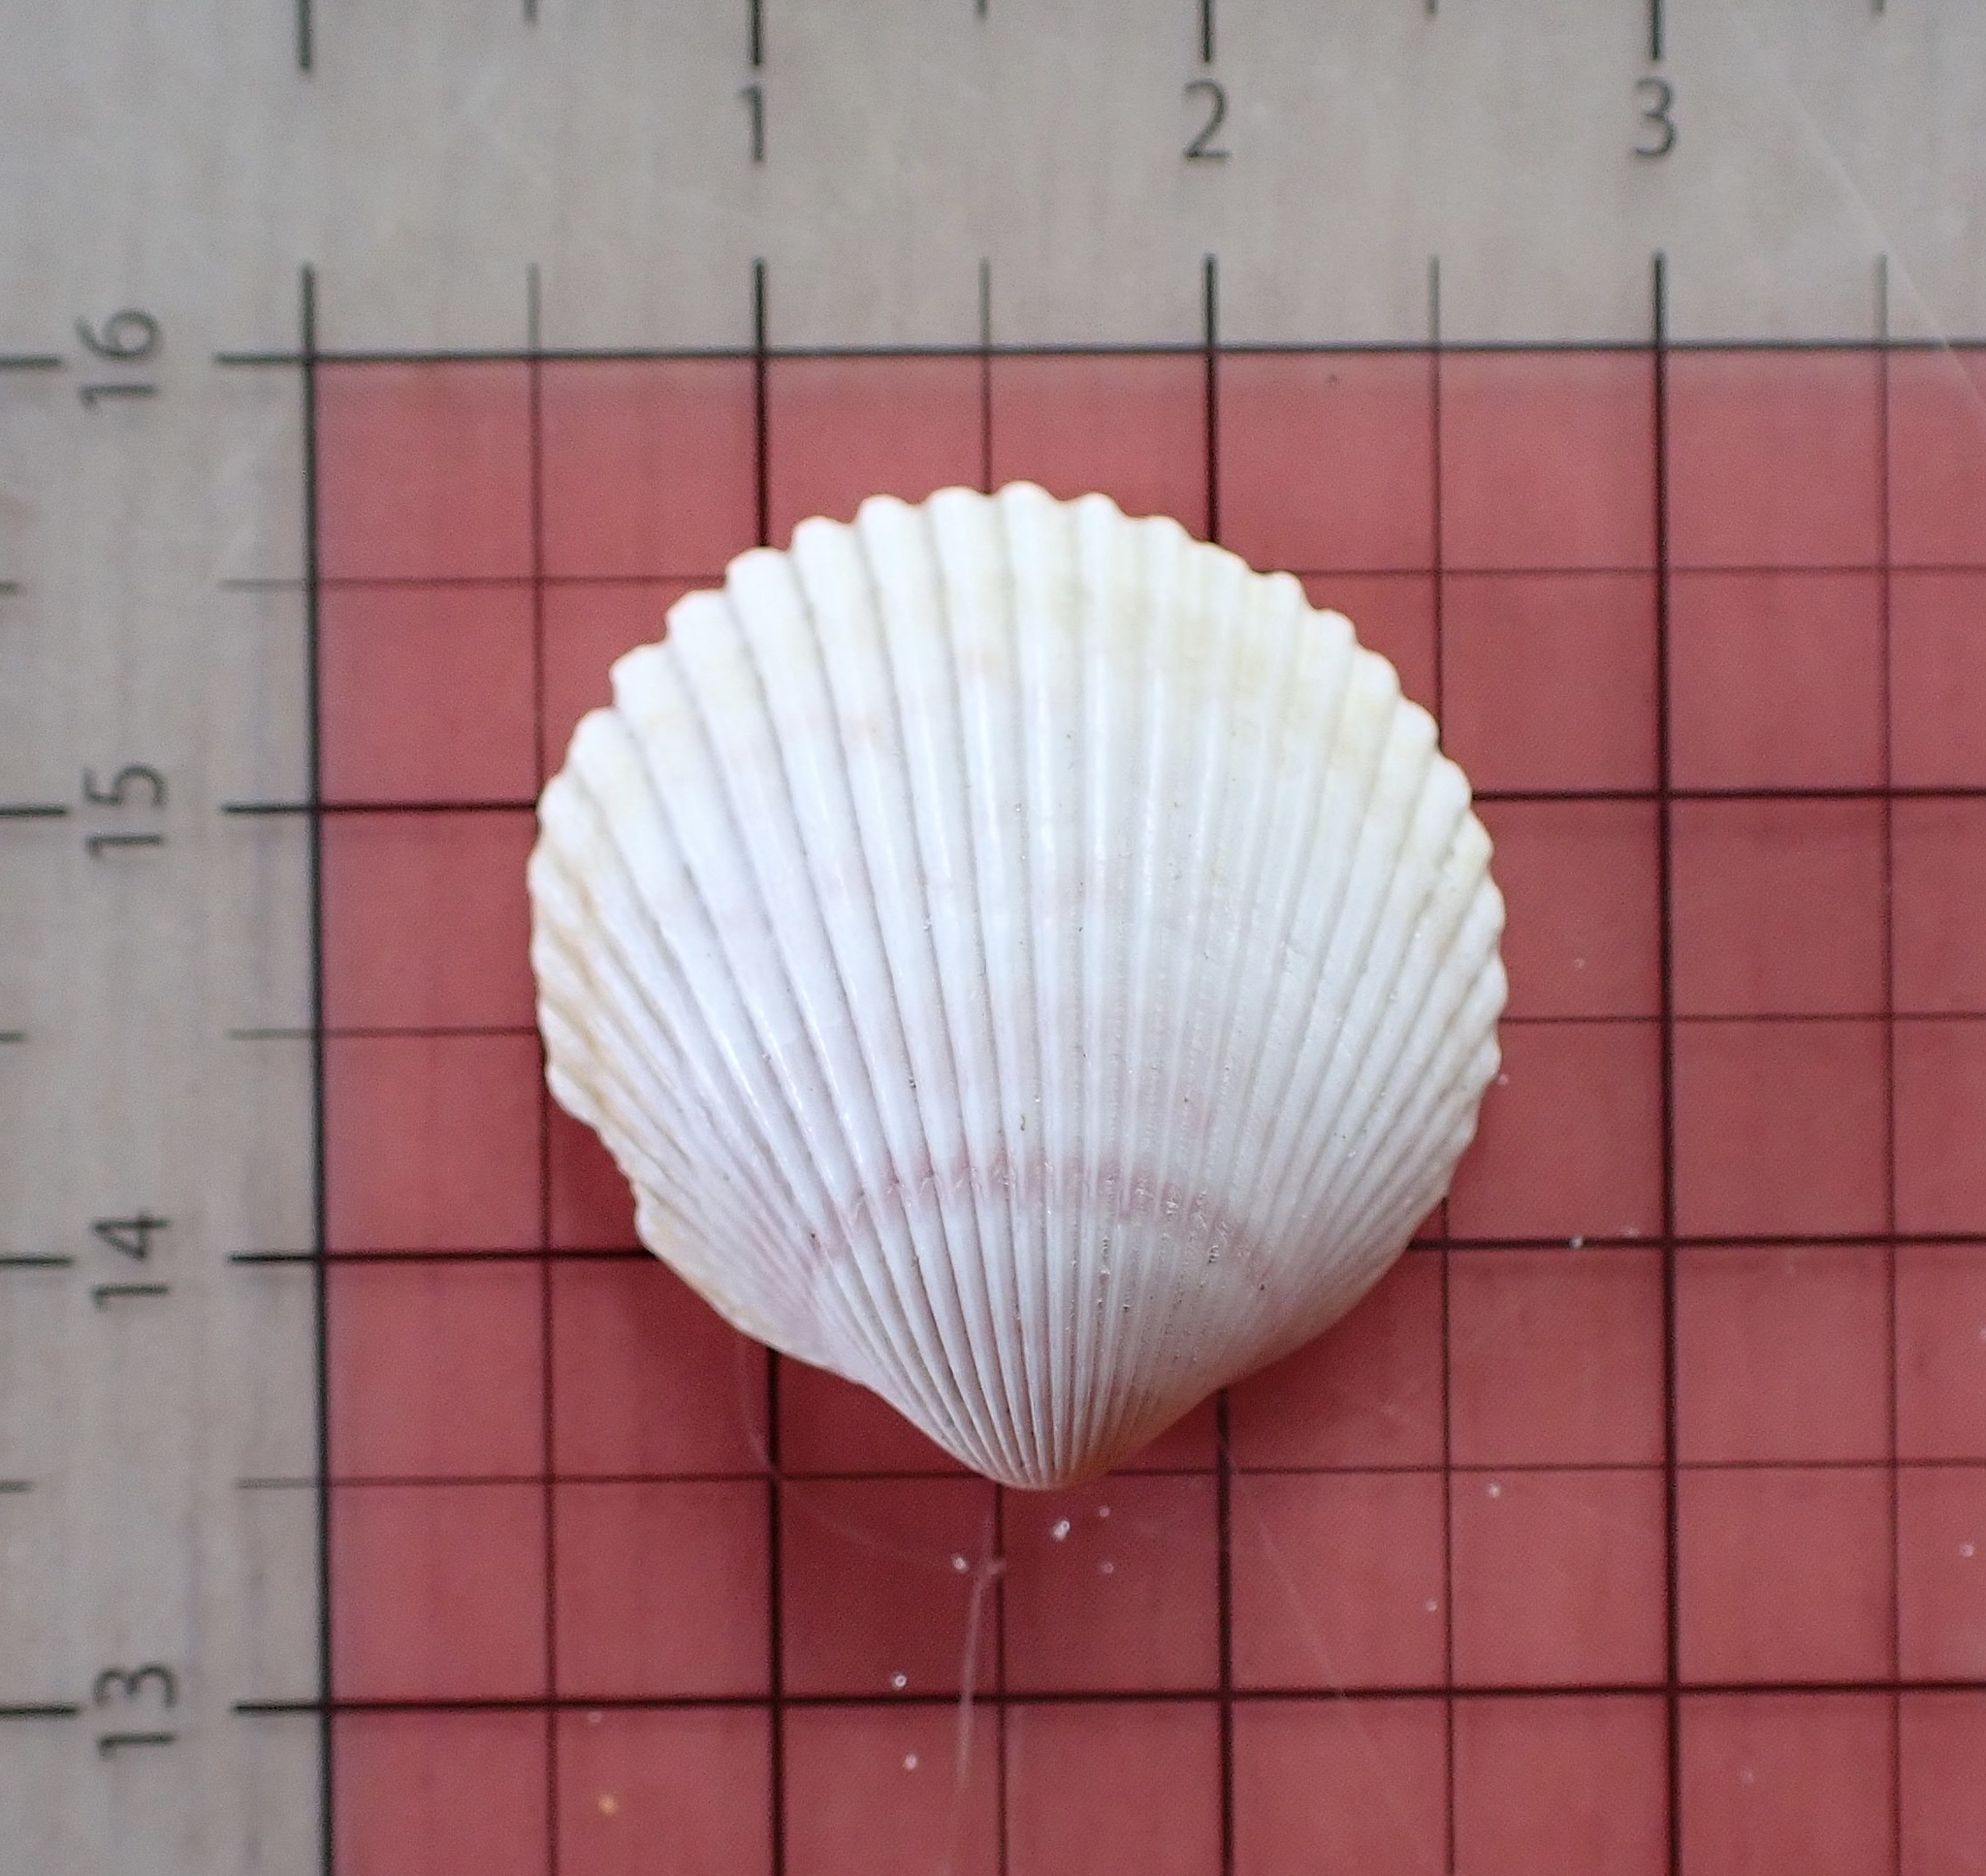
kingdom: Animalia
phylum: Mollusca
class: Bivalvia
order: Cardiida
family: Cardiidae
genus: Dallocardia
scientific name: Dallocardia muricata
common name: Yellow pricklycockle
